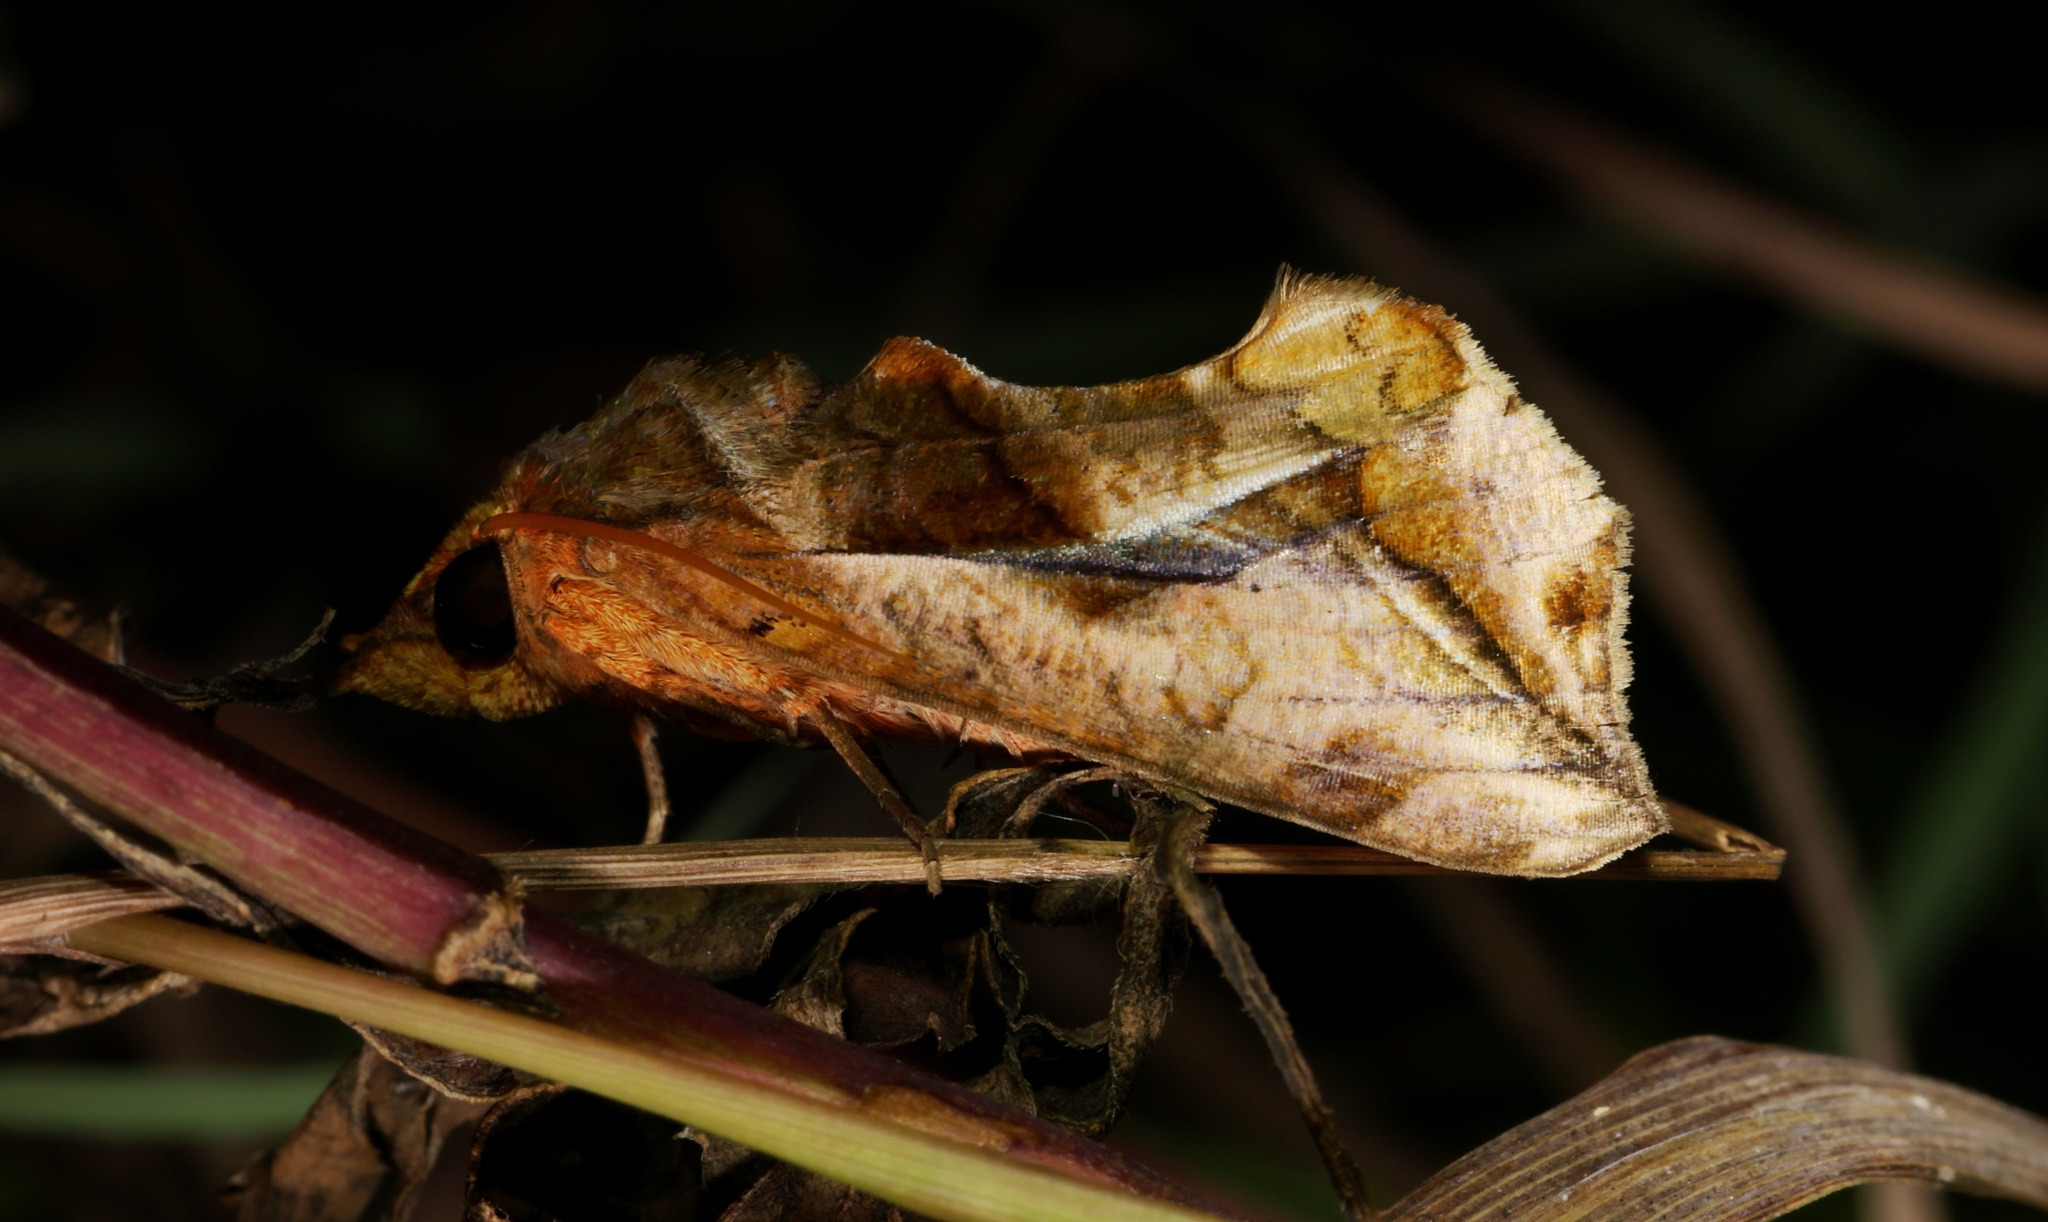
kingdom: Animalia
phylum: Arthropoda
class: Insecta
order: Lepidoptera
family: Erebidae
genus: Oraesia
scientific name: Oraesia emarginata
